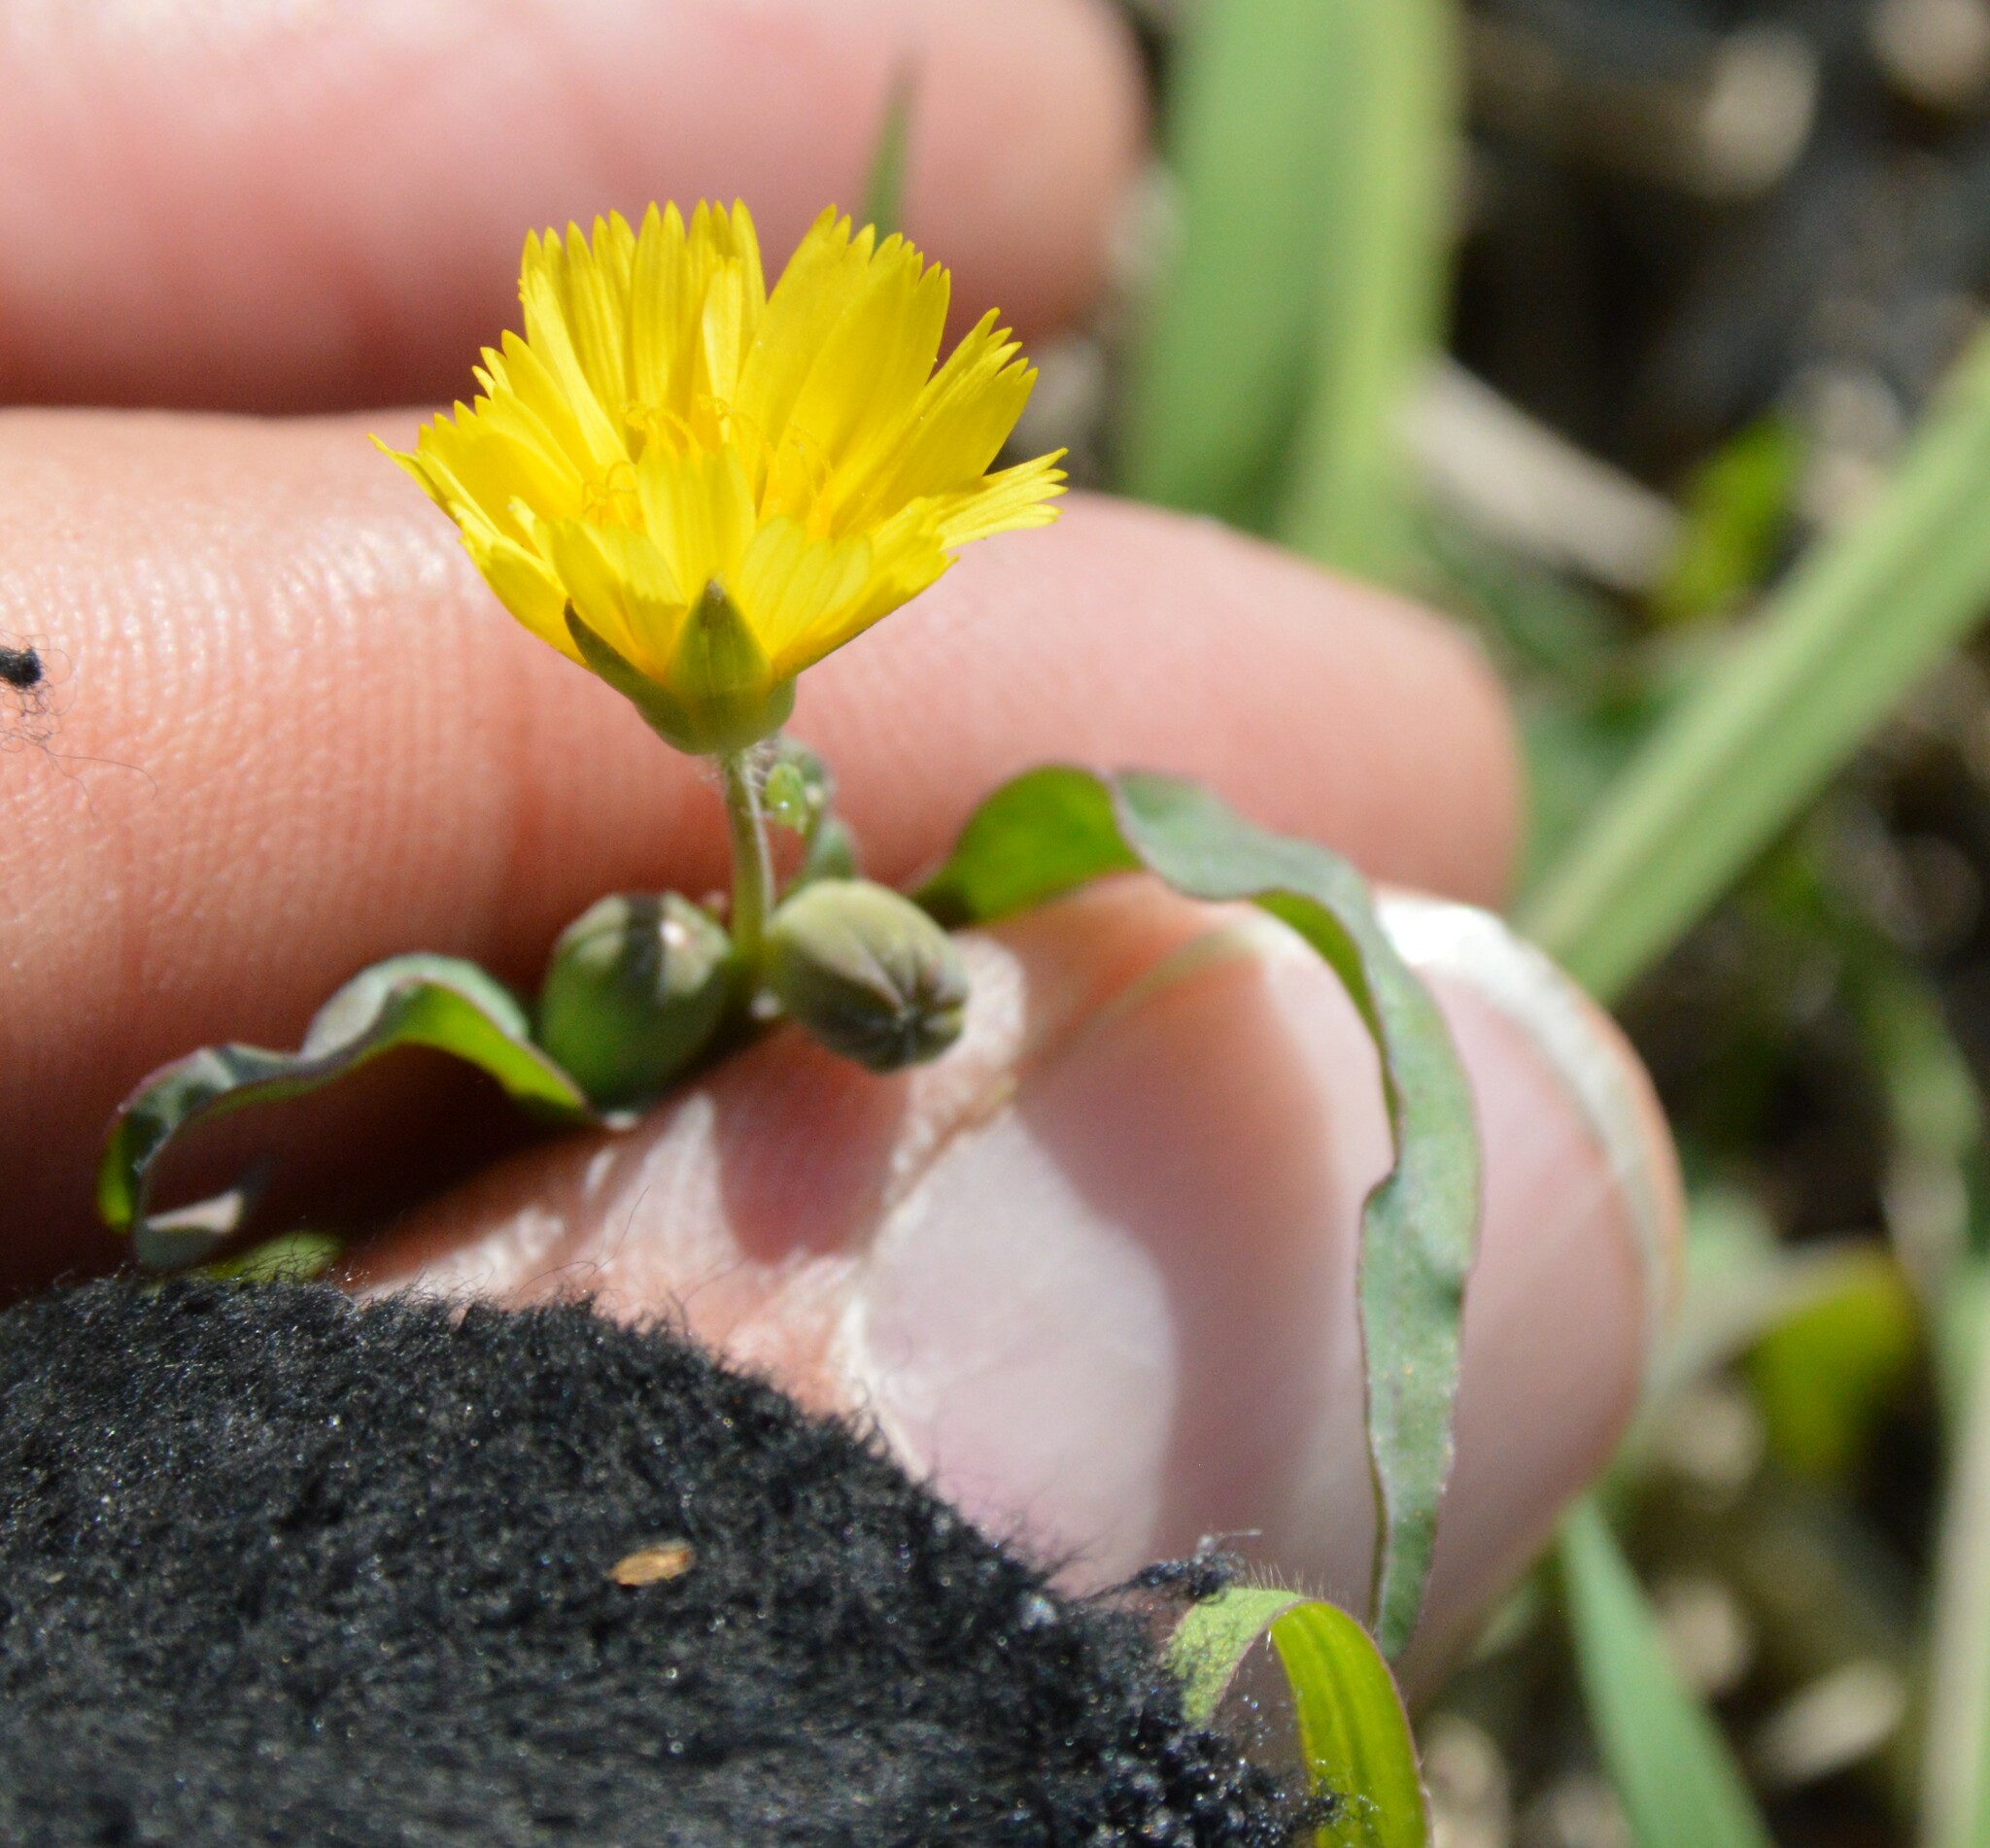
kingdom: Plantae
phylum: Tracheophyta
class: Magnoliopsida
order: Asterales
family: Asteraceae
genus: Krigia
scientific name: Krigia cespitosa
